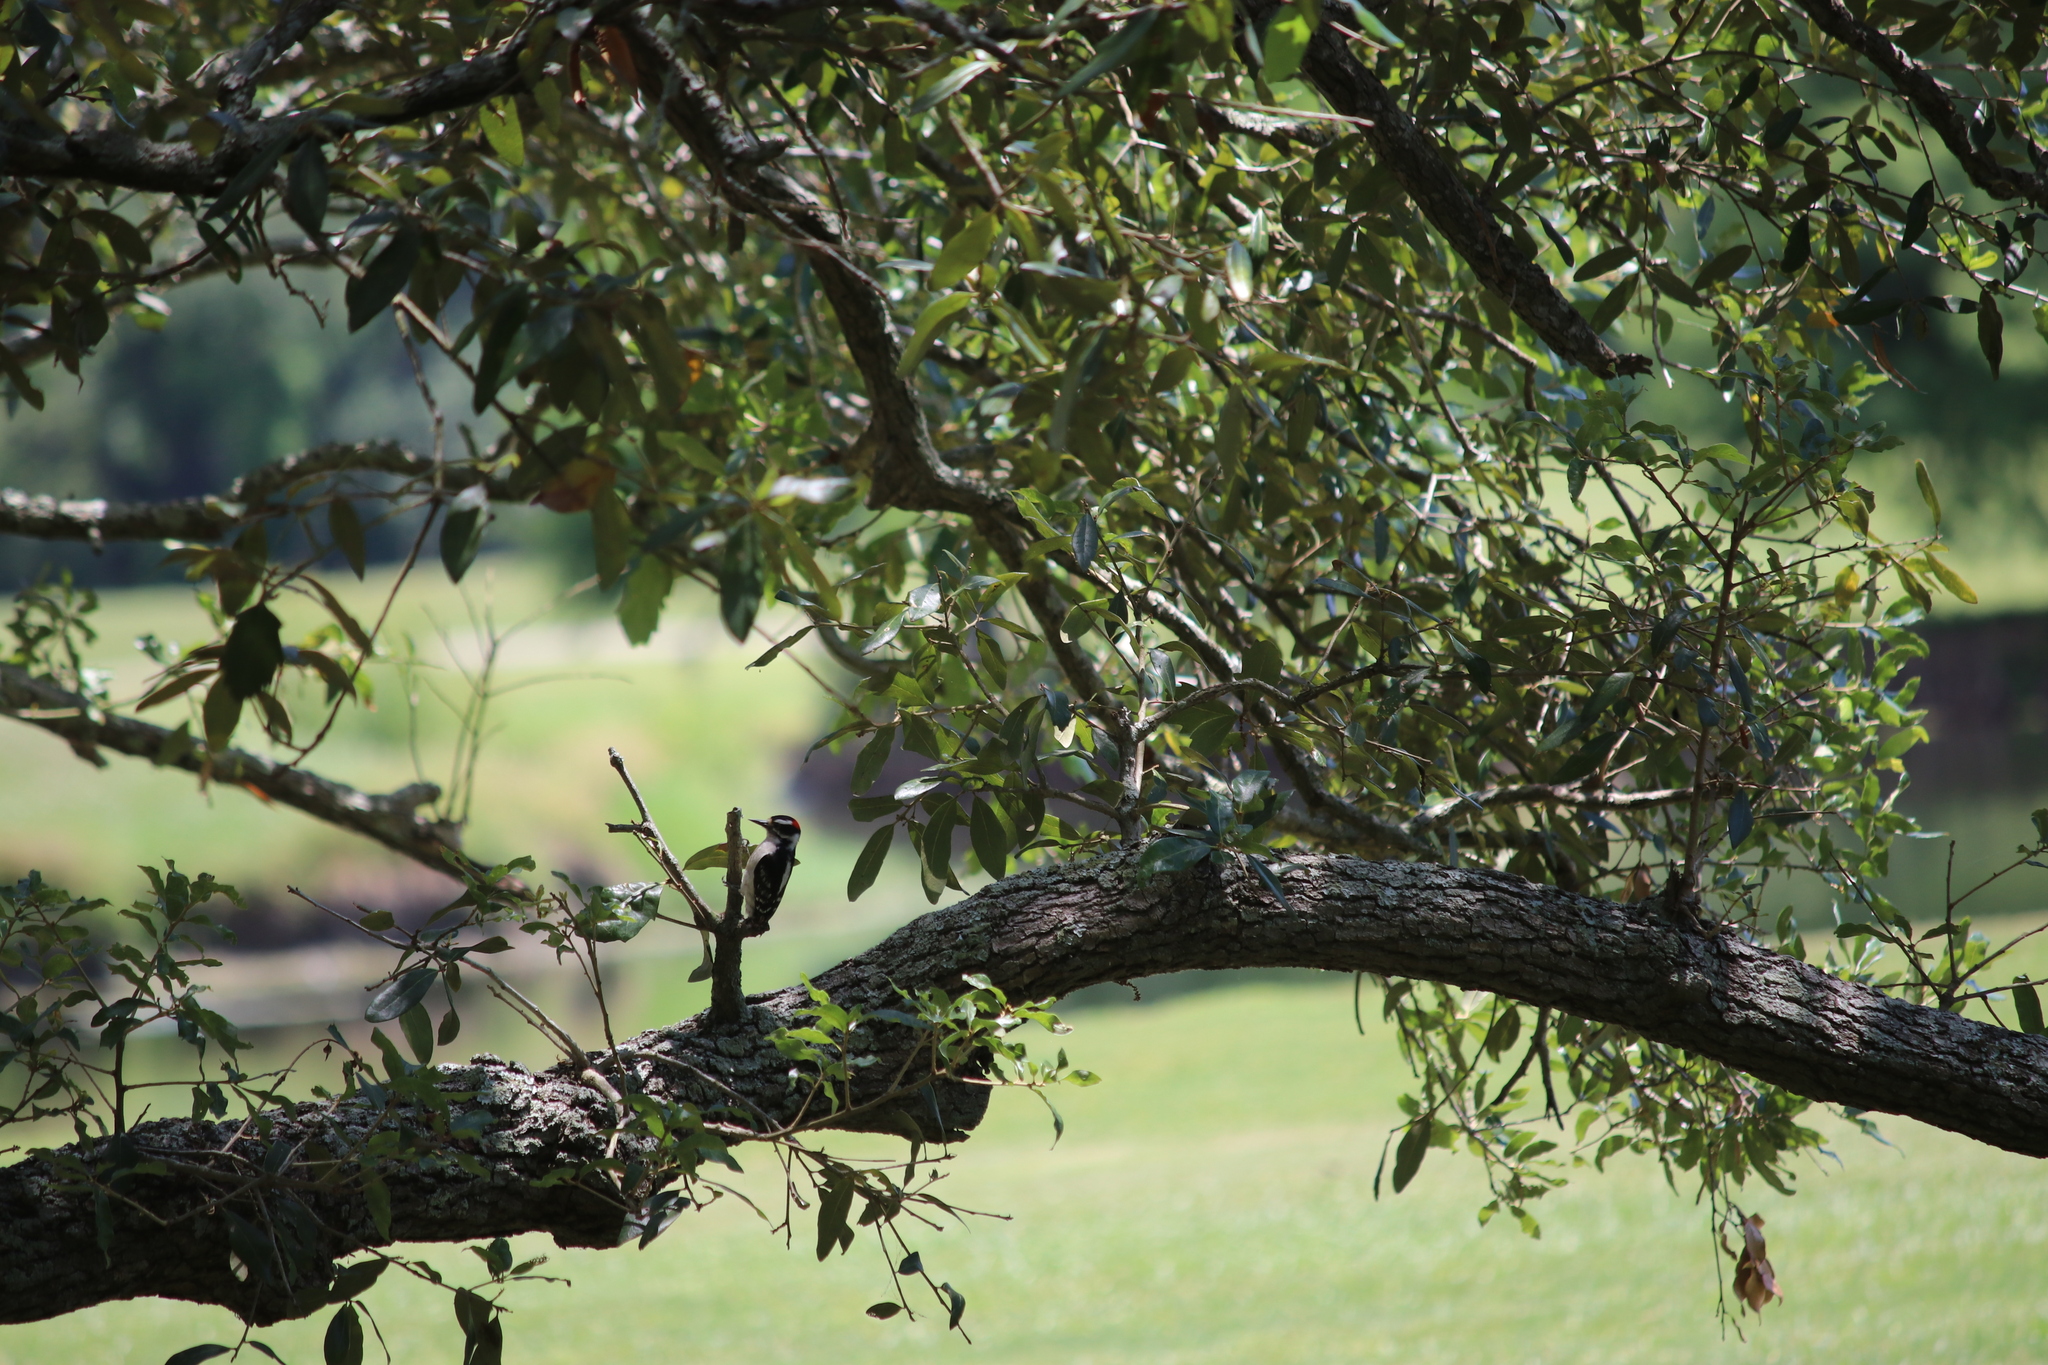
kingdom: Animalia
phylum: Chordata
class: Aves
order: Piciformes
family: Picidae
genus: Dryobates
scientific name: Dryobates pubescens
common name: Downy woodpecker
